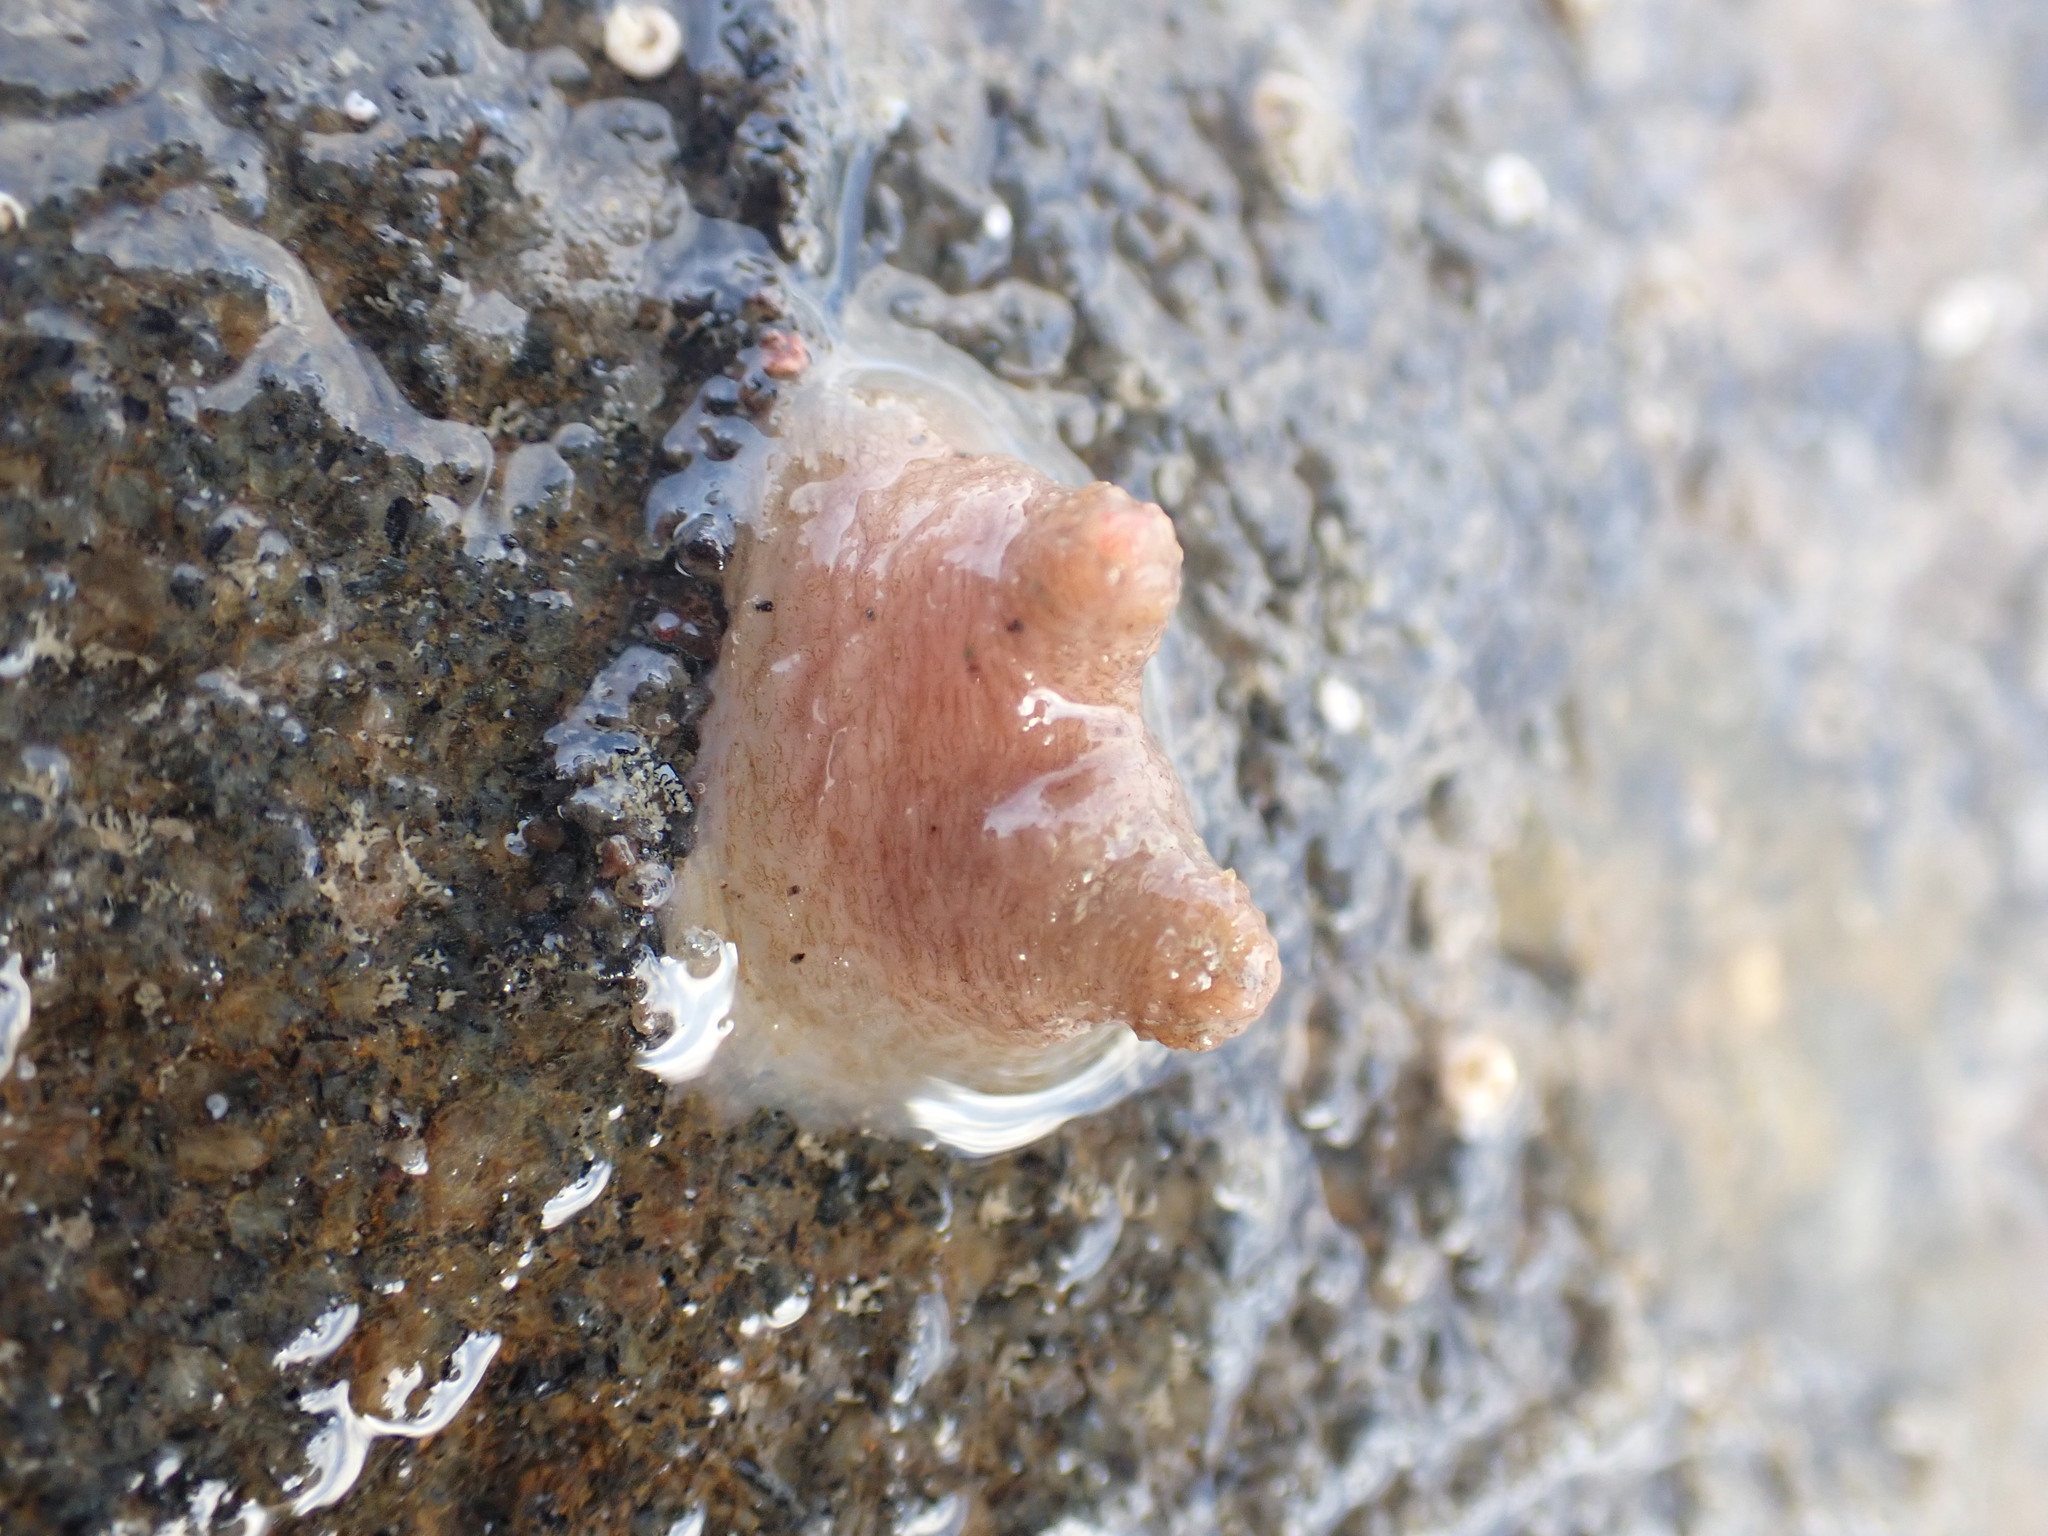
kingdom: Animalia
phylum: Chordata
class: Ascidiacea
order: Phlebobranchia
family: Corellidae
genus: Corella
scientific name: Corella eumyota
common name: Orange-tipped sea squirt
